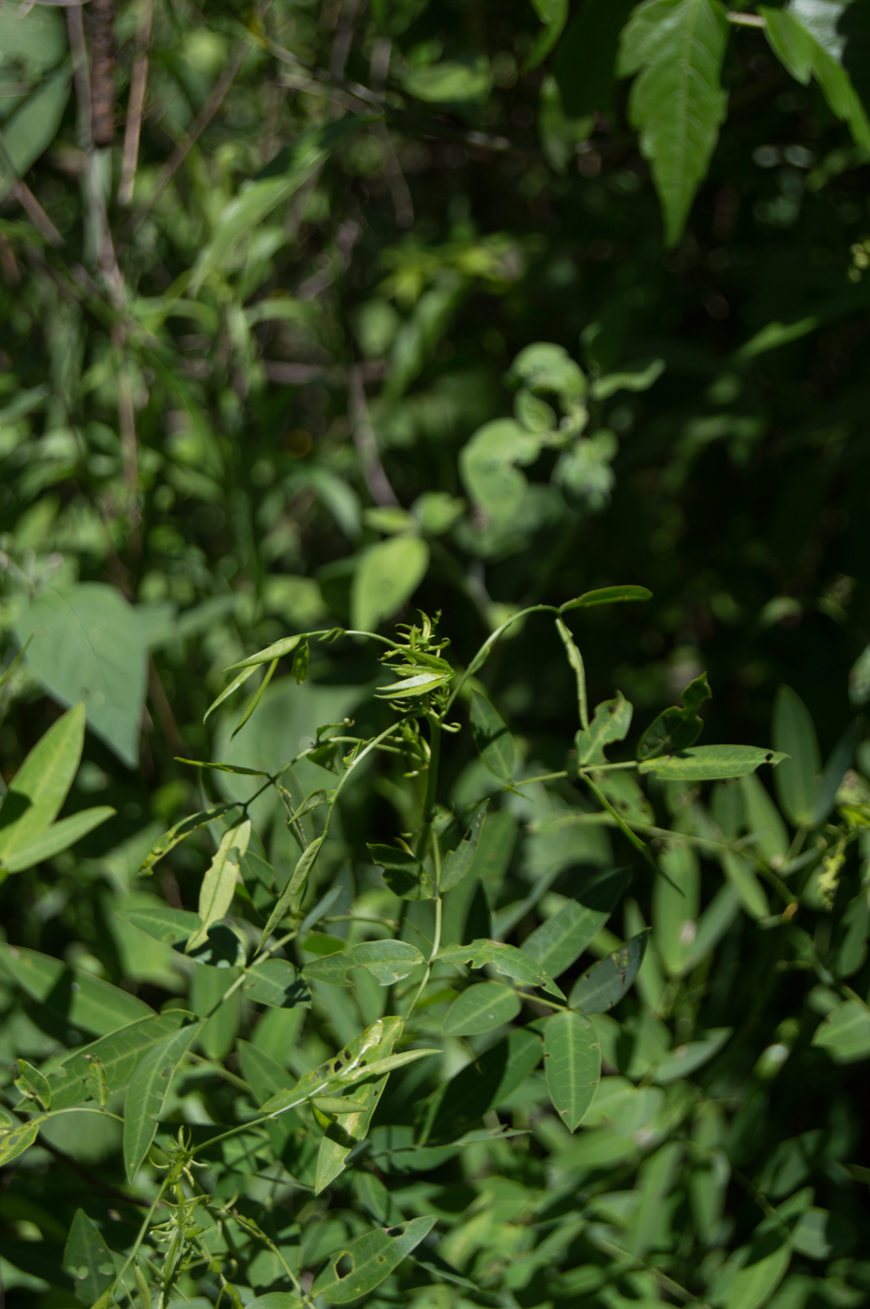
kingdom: Plantae
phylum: Tracheophyta
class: Magnoliopsida
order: Fabales
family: Fabaceae
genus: Senna
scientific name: Senna corymbosa
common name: Argentine senna
